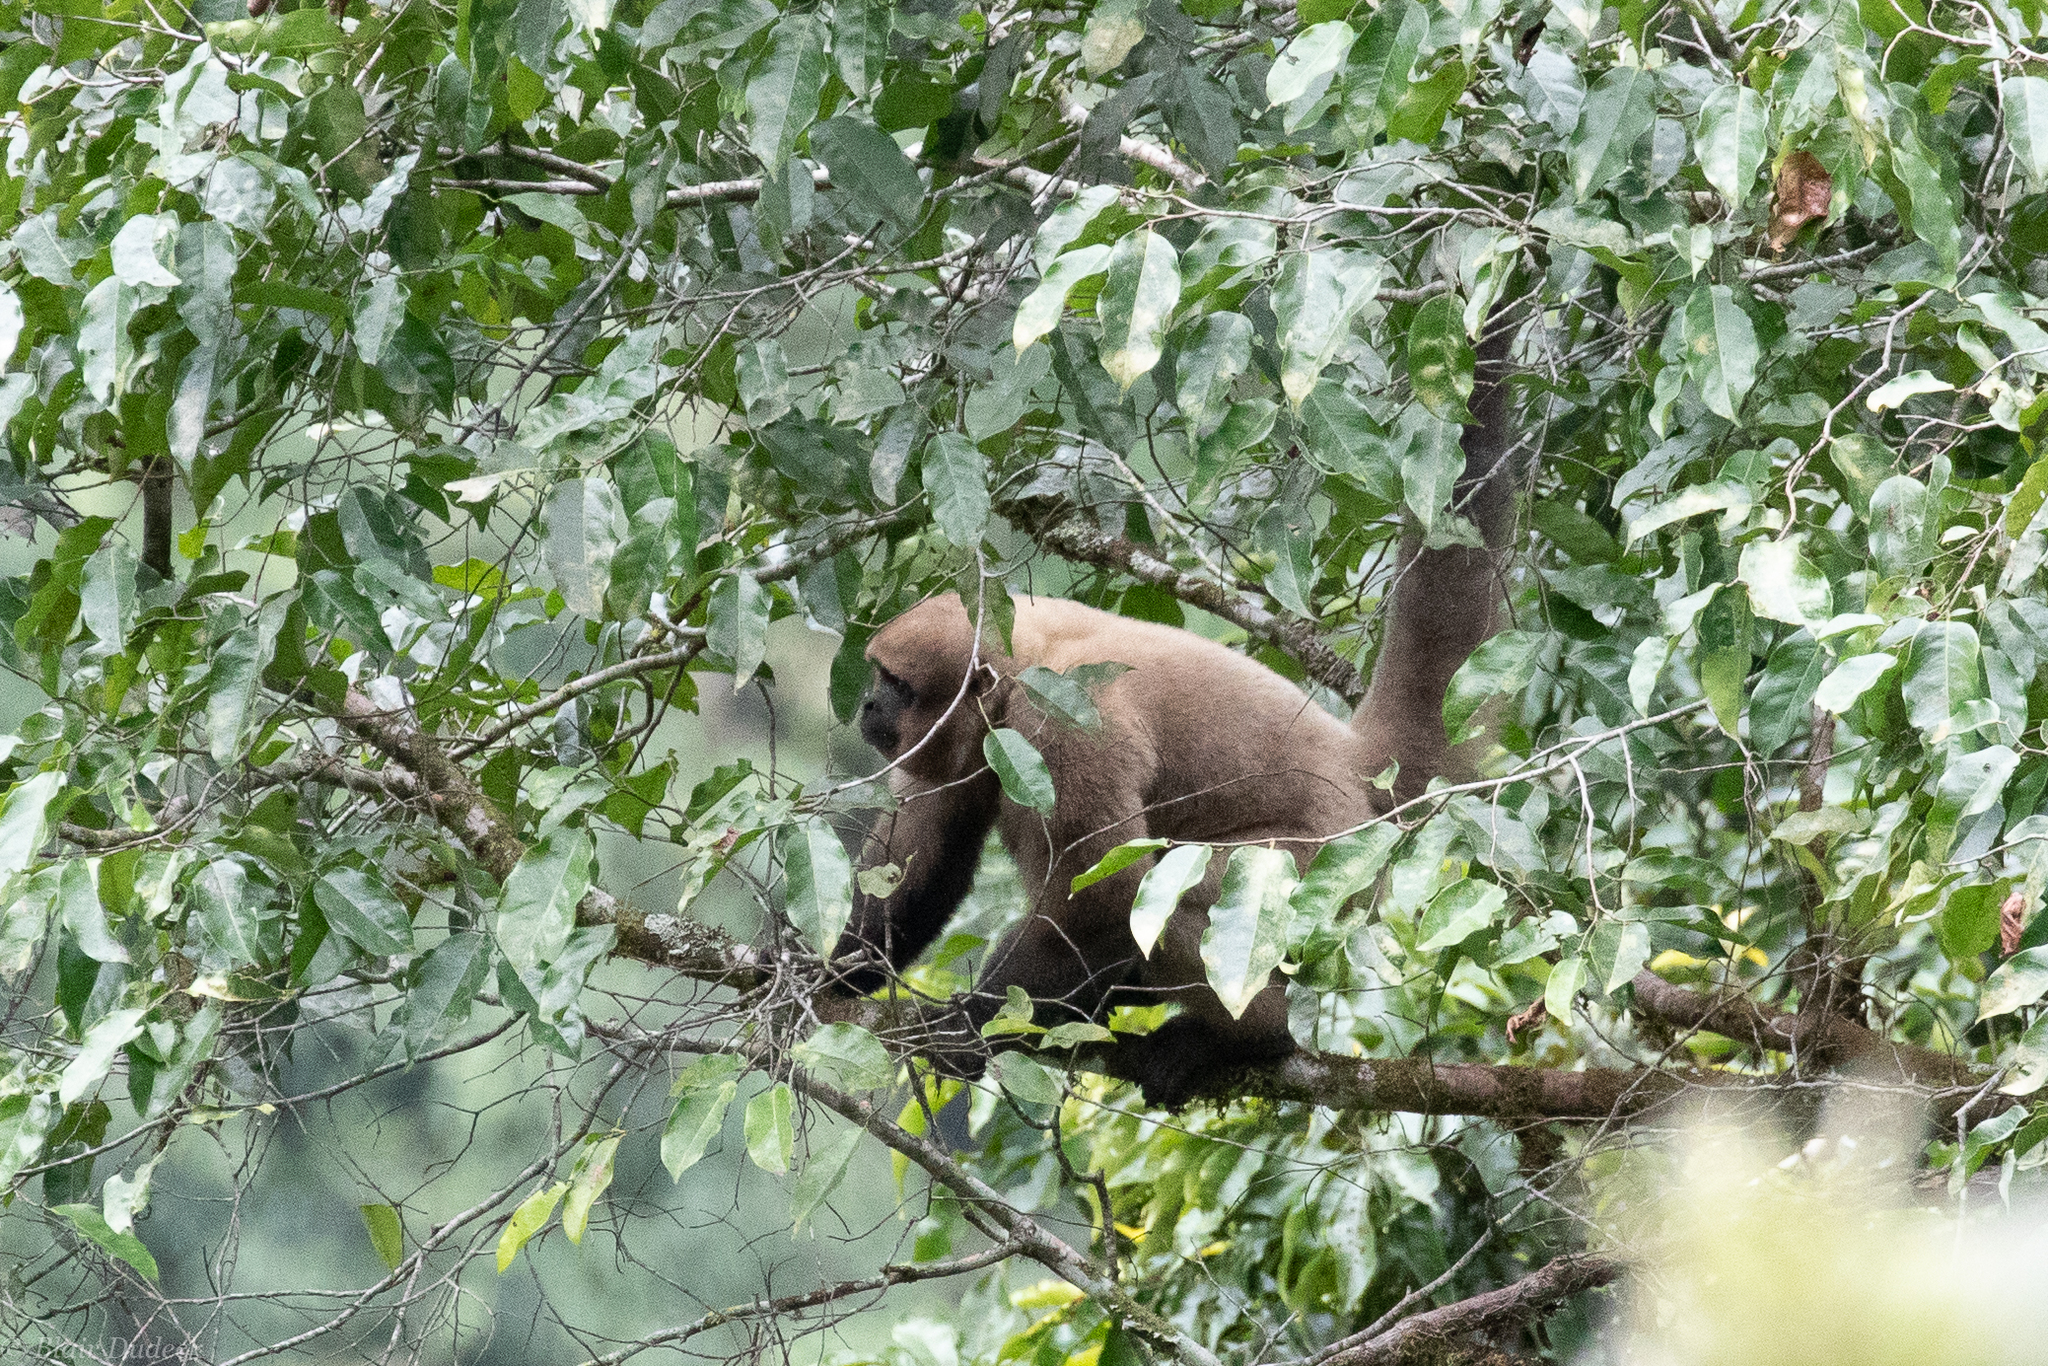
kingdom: Animalia
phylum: Chordata
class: Mammalia
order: Primates
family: Atelidae
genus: Lagothrix
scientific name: Lagothrix lagothricha
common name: Brown woolly monkey
